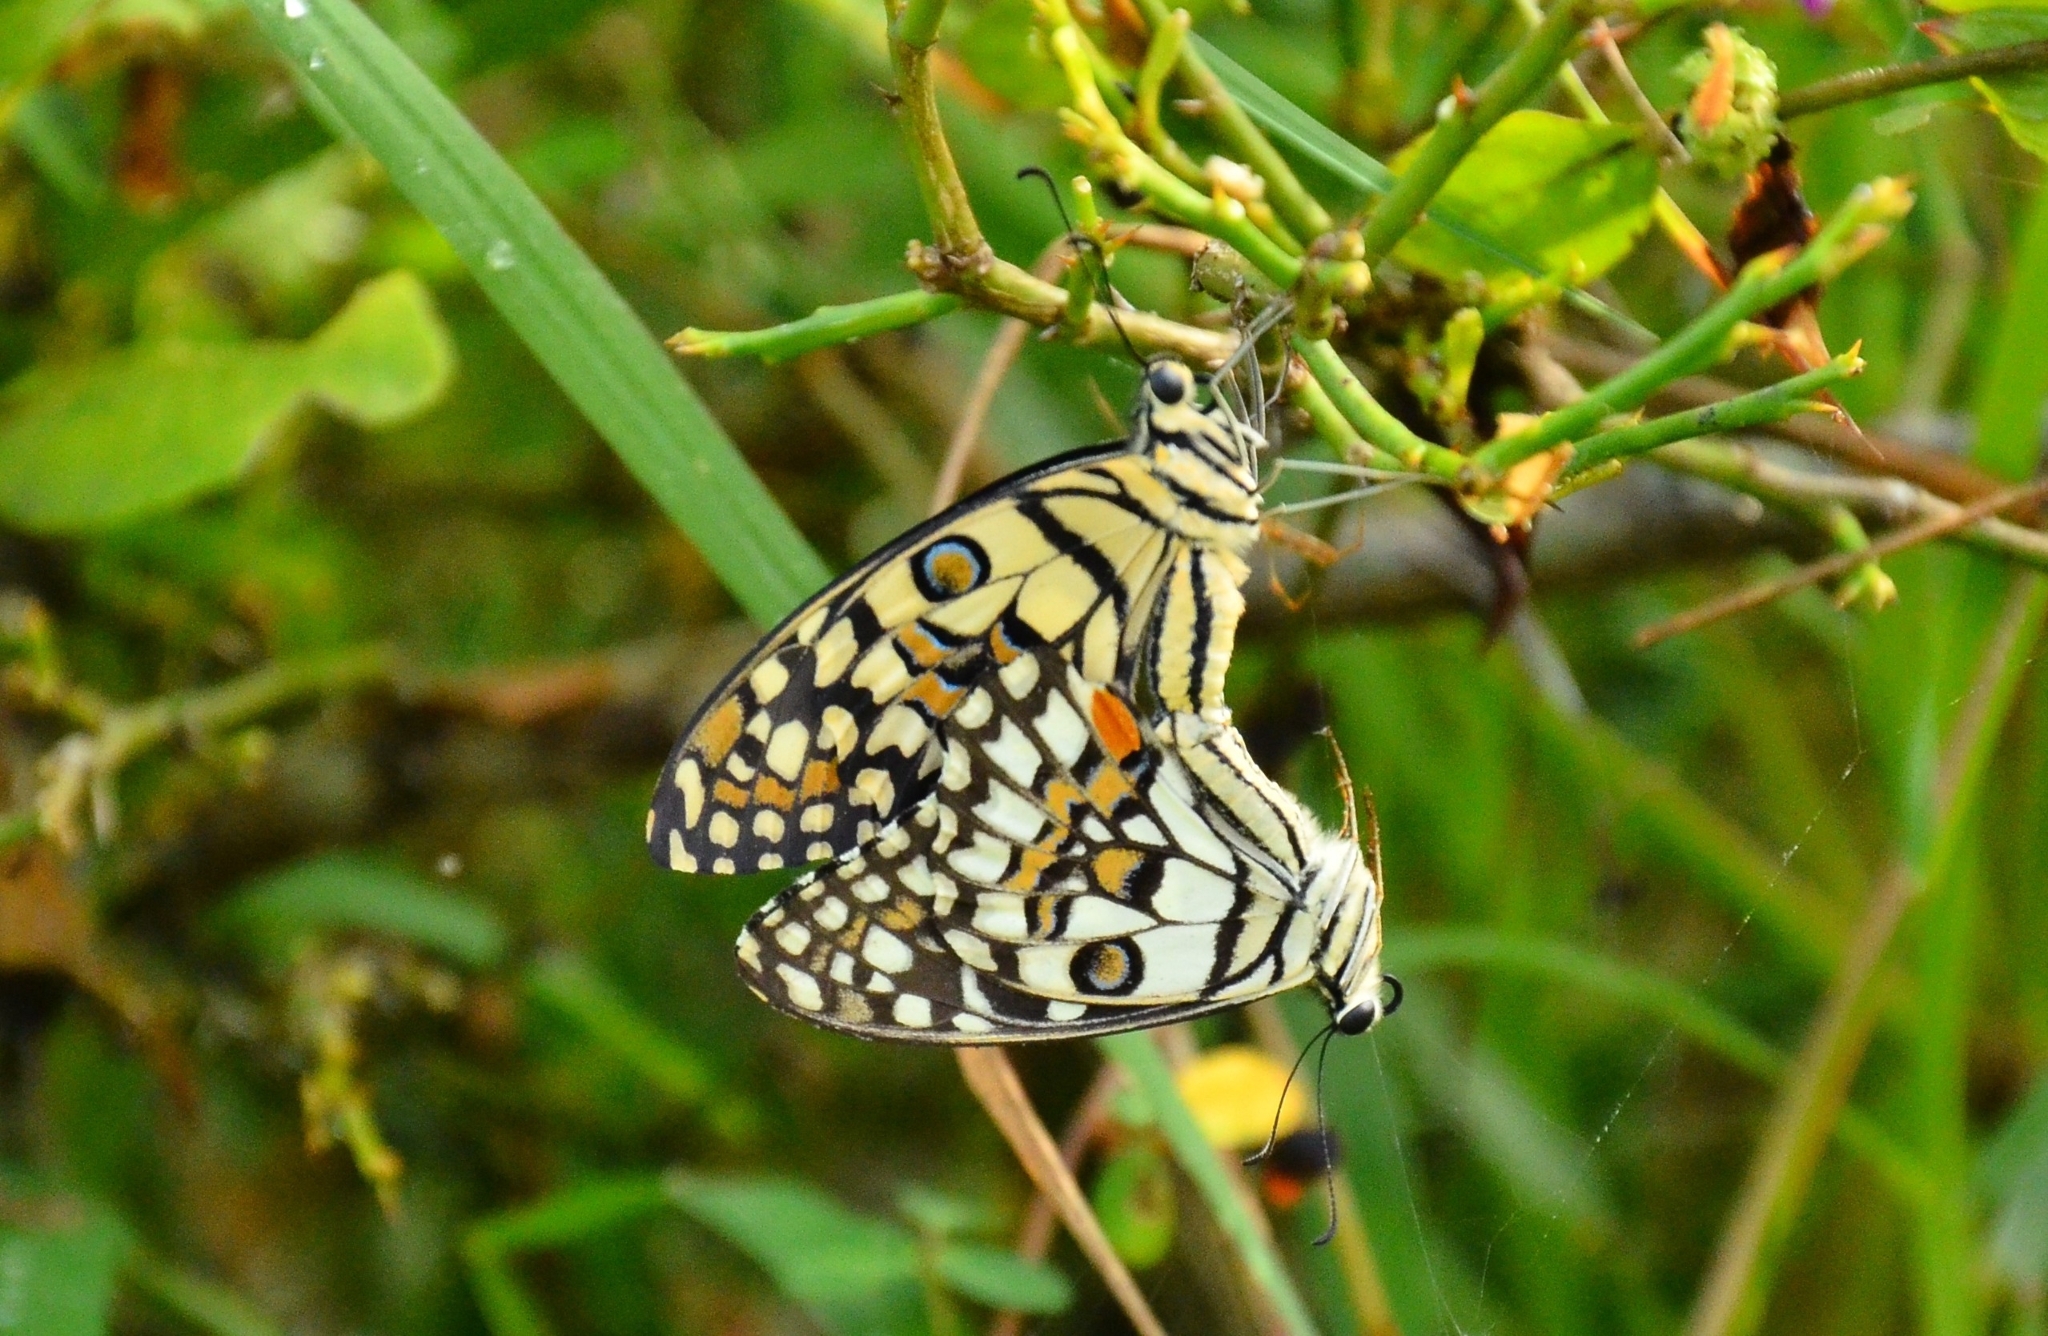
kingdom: Animalia
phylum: Arthropoda
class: Insecta
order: Lepidoptera
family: Papilionidae
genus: Papilio
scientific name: Papilio demoleus
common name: Lime butterfly
